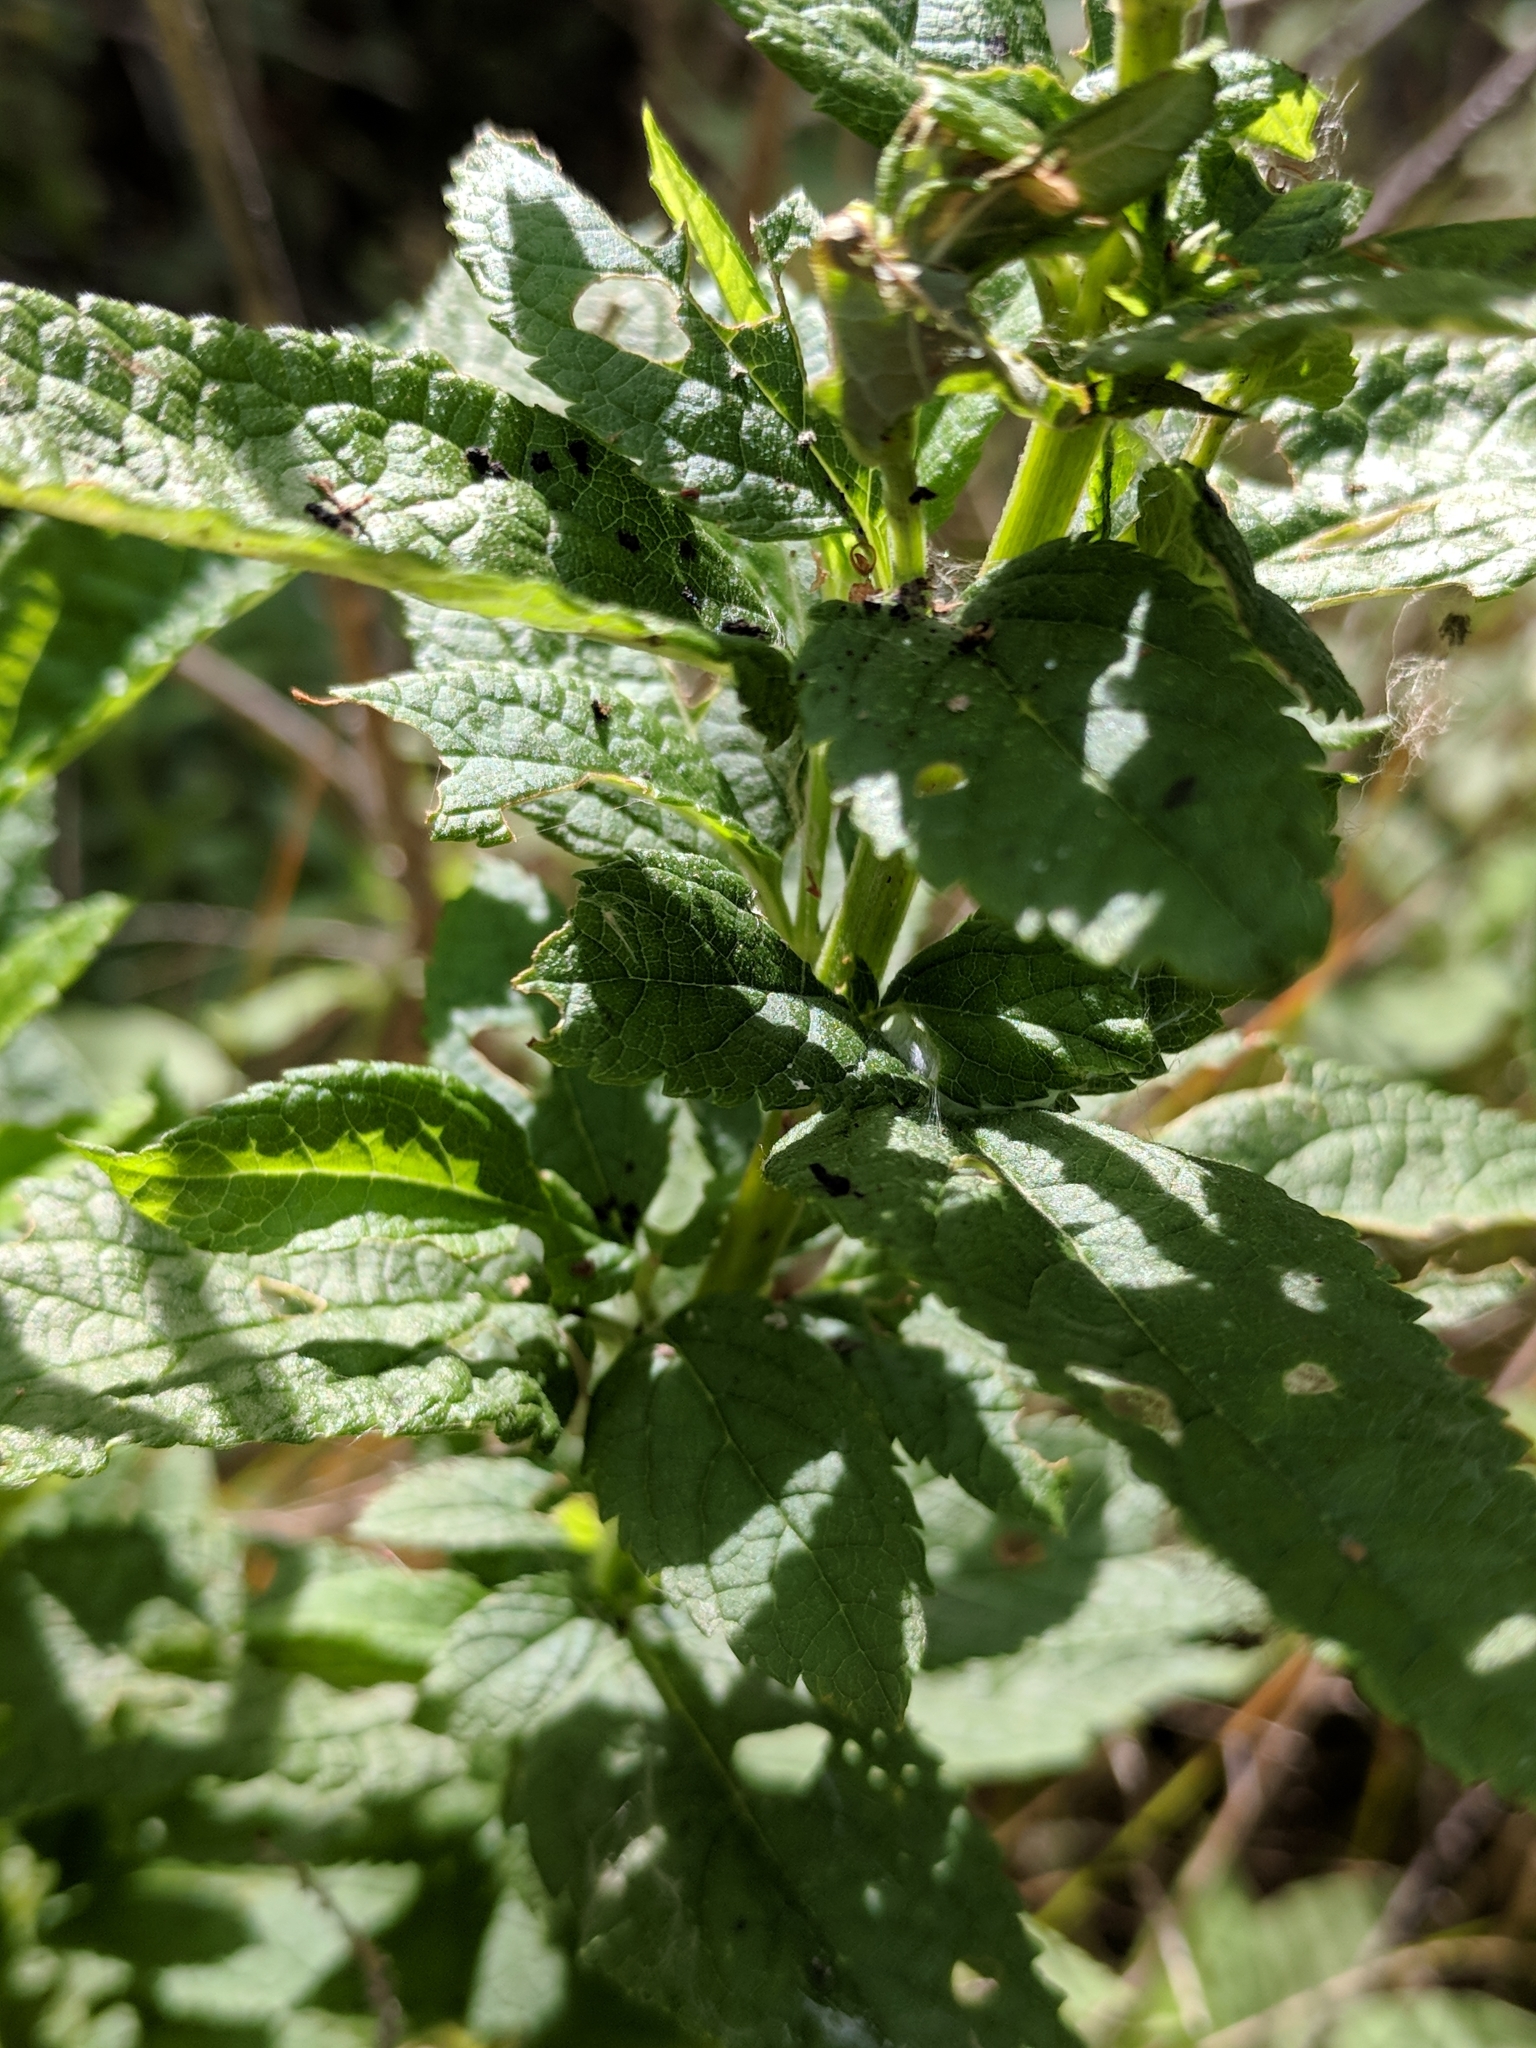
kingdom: Plantae
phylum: Tracheophyta
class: Magnoliopsida
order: Lamiales
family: Lamiaceae
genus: Teucrium
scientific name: Teucrium canadense
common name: American germander
